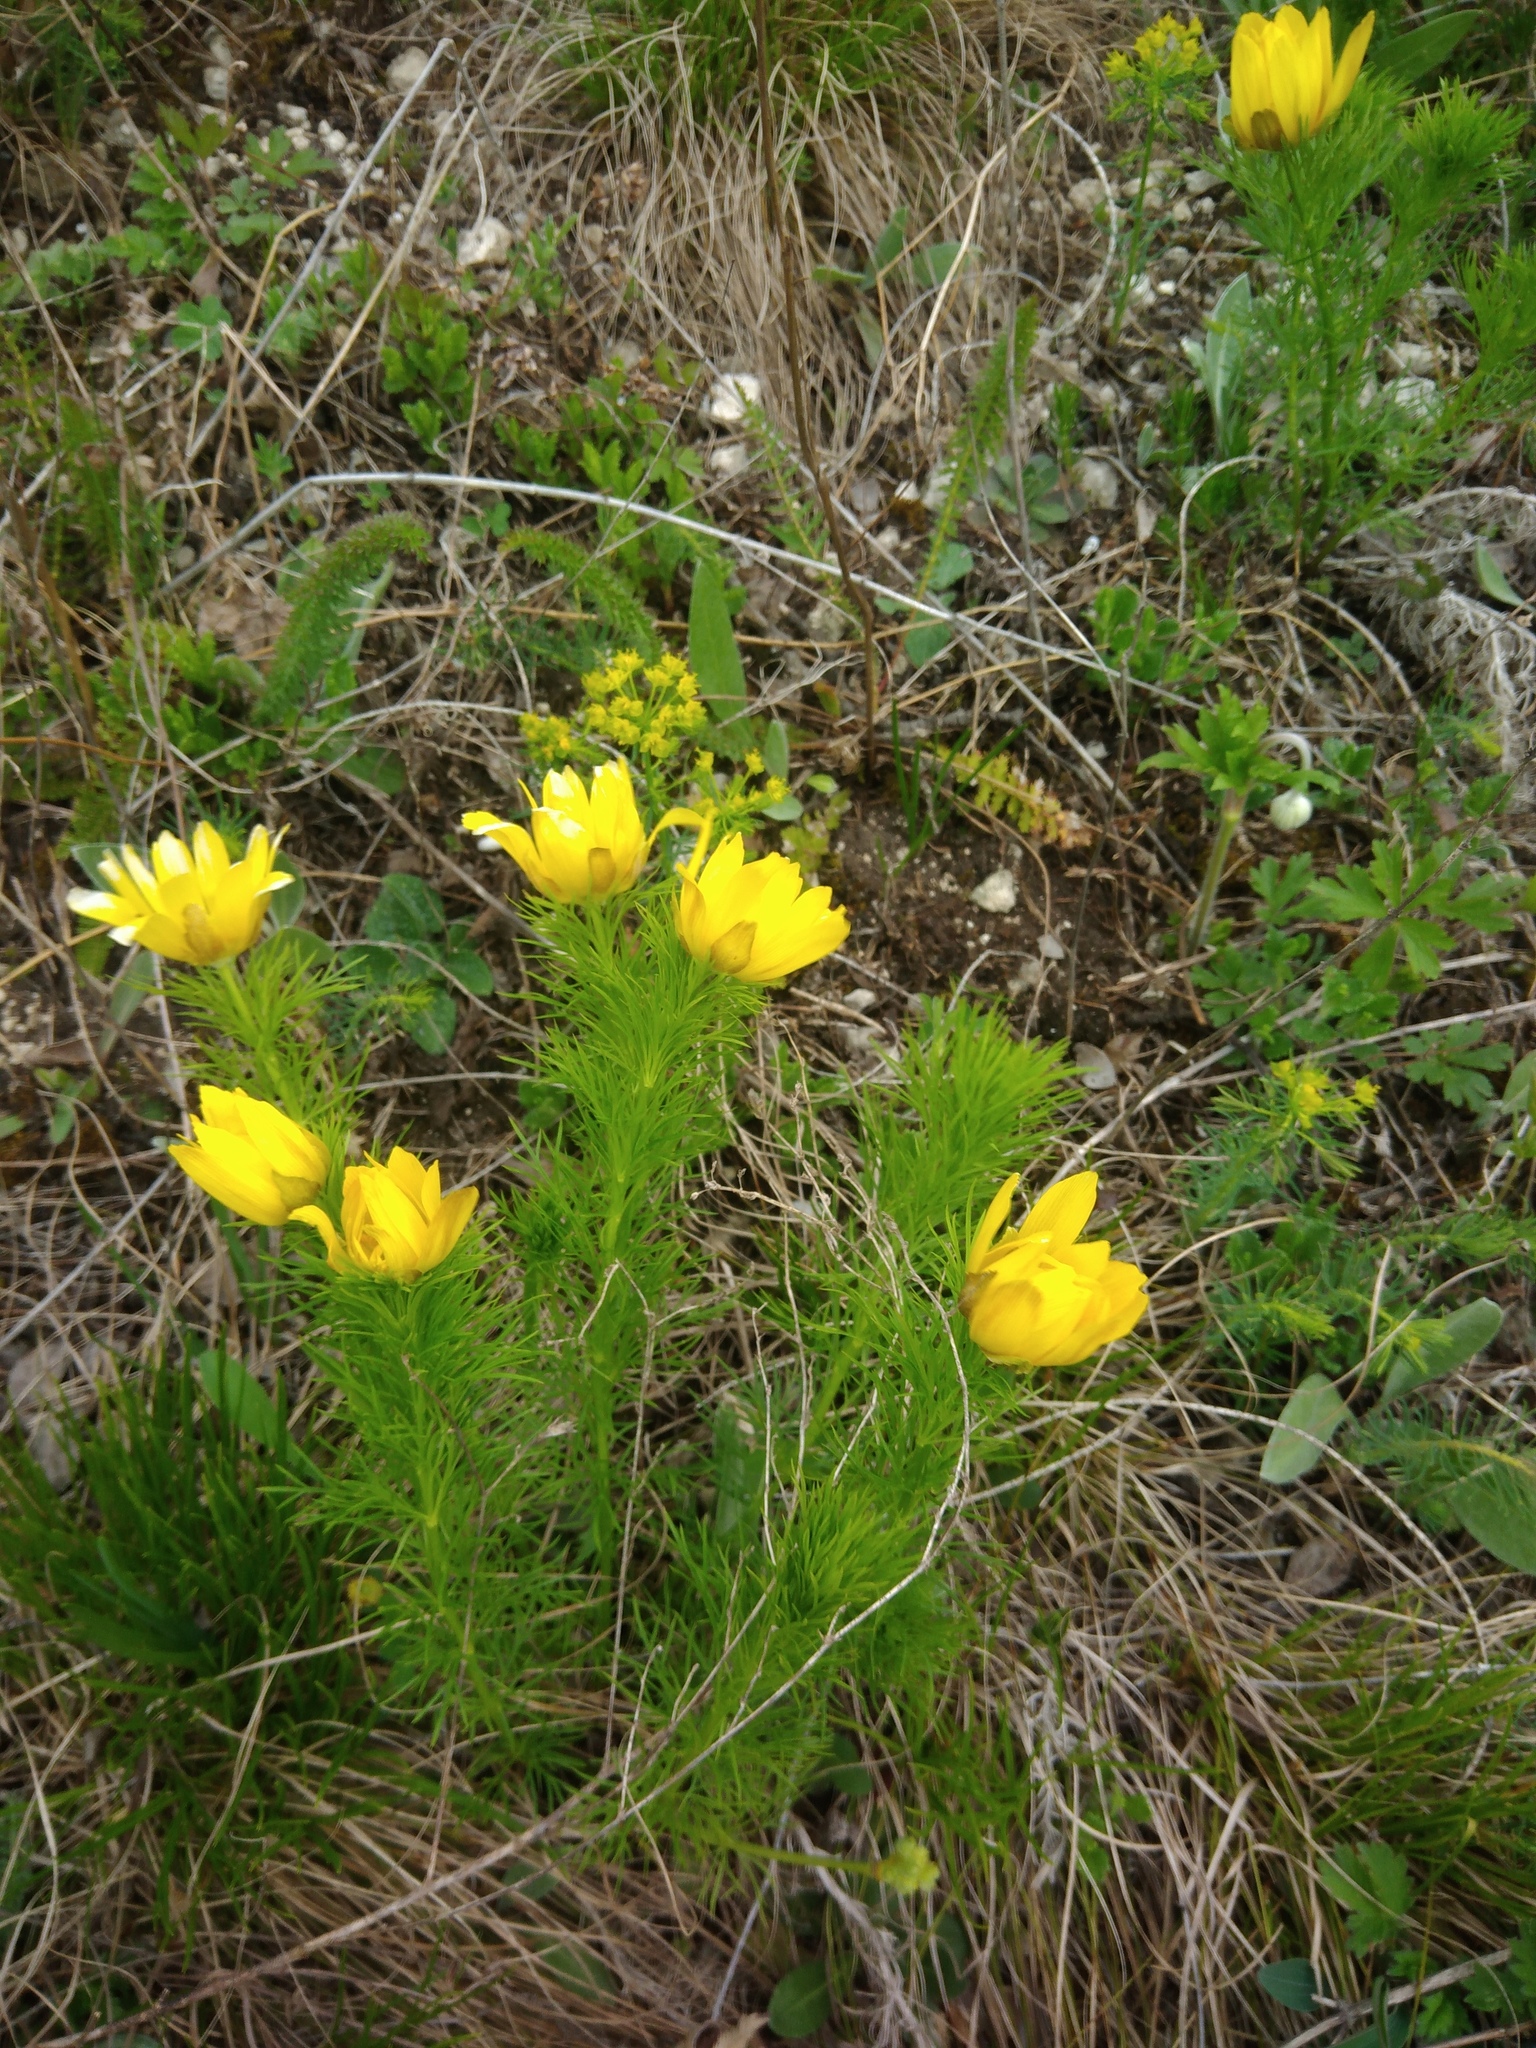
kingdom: Plantae
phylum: Tracheophyta
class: Magnoliopsida
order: Ranunculales
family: Ranunculaceae
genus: Adonis
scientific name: Adonis vernalis
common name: Yellow pheasants-eye
